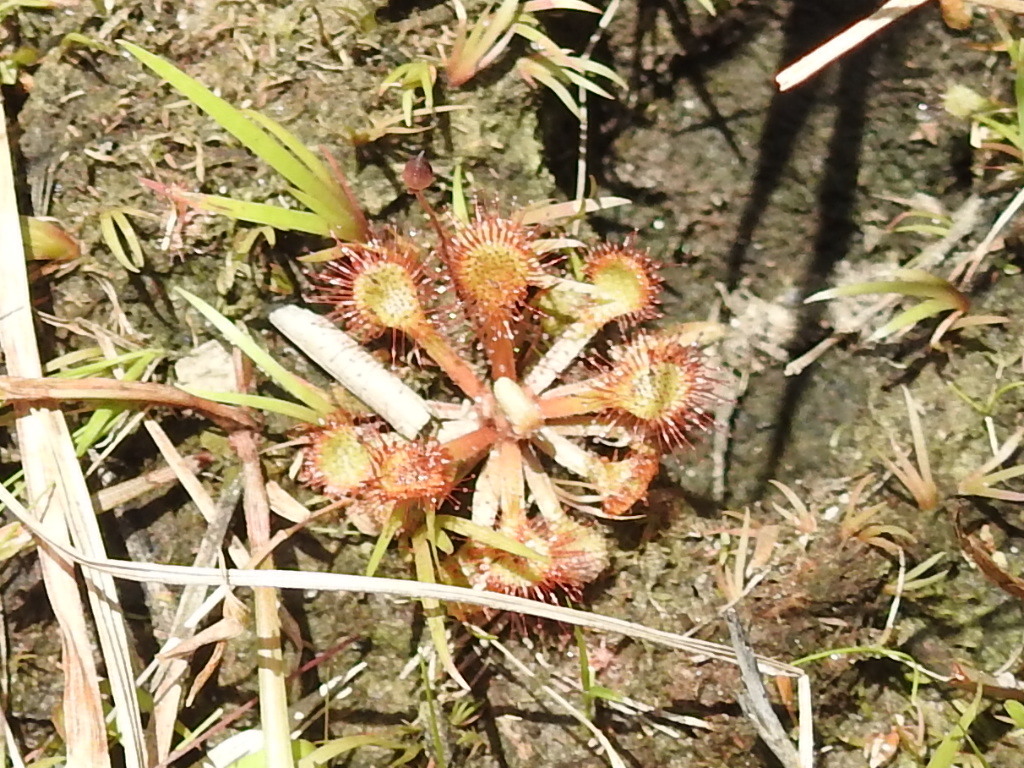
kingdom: Plantae
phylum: Tracheophyta
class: Magnoliopsida
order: Caryophyllales
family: Droseraceae
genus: Drosera
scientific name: Drosera capillaris
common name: Pink sundew
